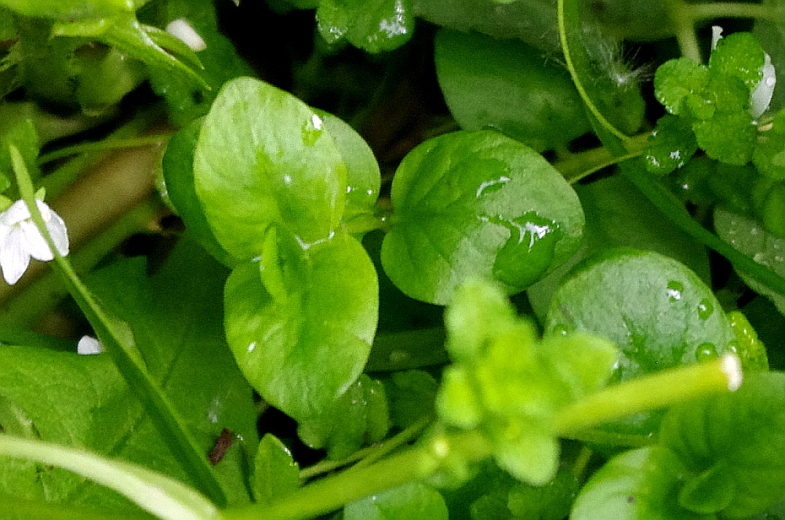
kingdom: Plantae
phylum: Tracheophyta
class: Magnoliopsida
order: Ericales
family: Primulaceae
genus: Lysimachia
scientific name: Lysimachia nummularia
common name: Moneywort
